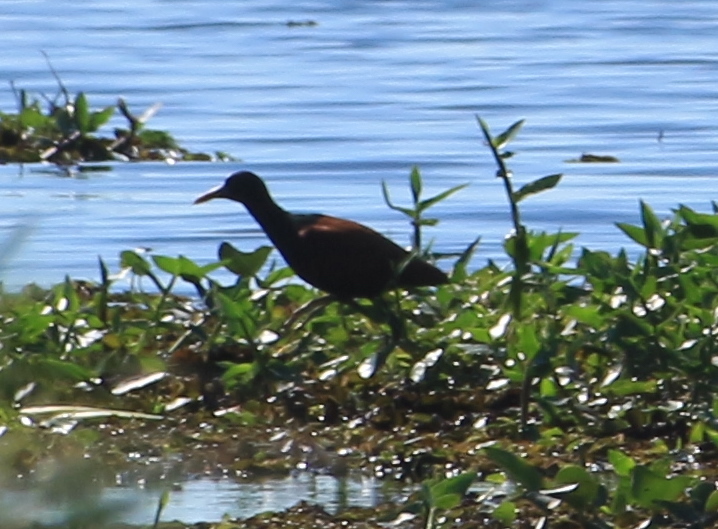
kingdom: Animalia
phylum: Chordata
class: Aves
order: Charadriiformes
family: Jacanidae
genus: Jacana
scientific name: Jacana jacana
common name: Wattled jacana
